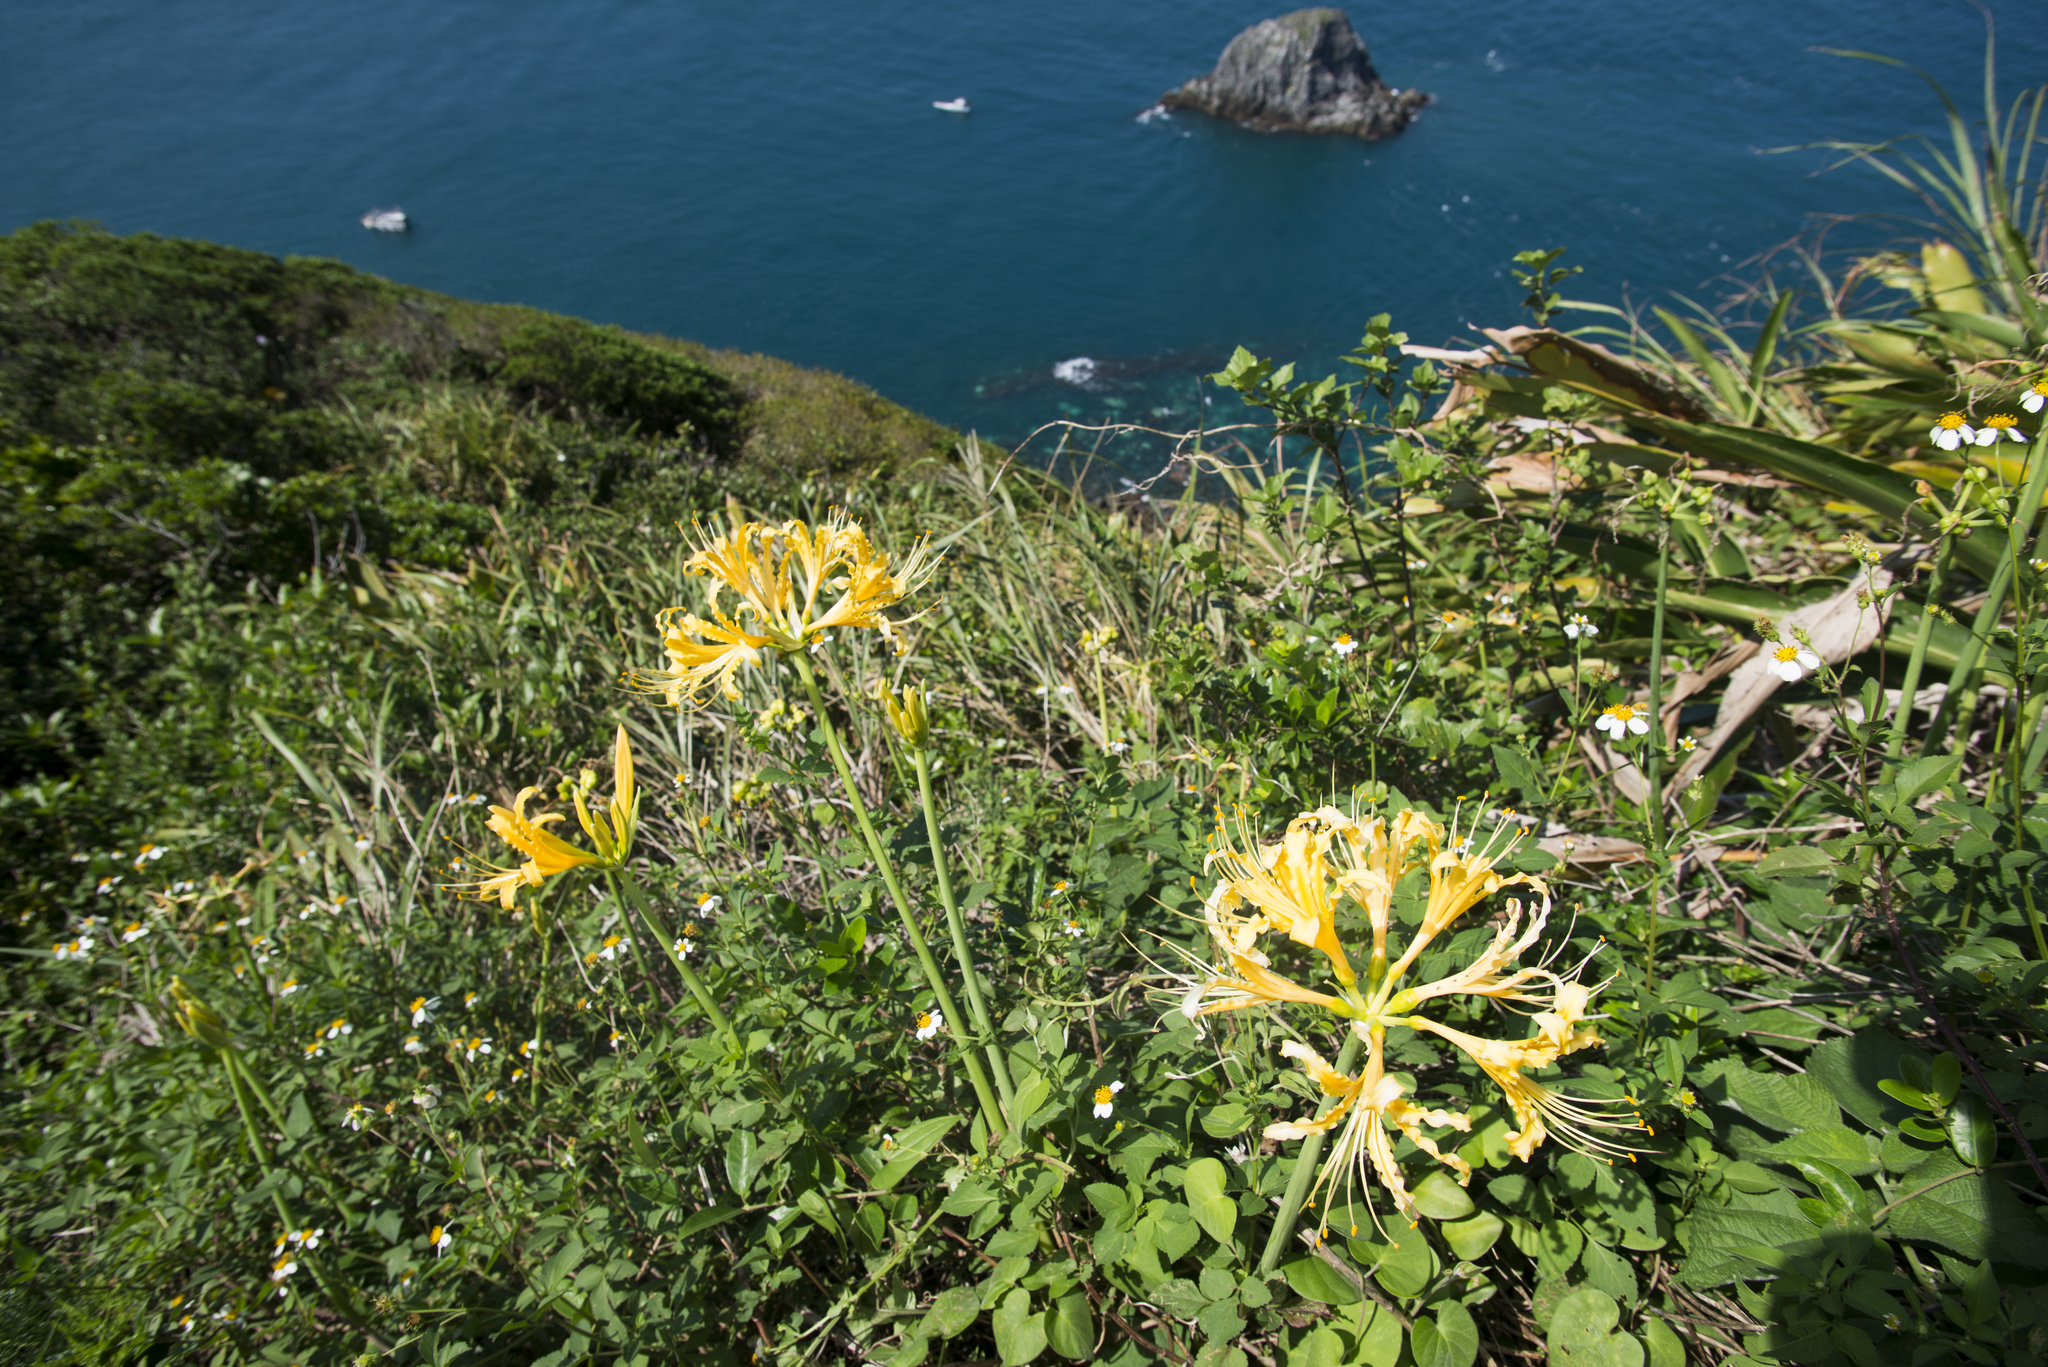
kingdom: Plantae
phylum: Tracheophyta
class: Liliopsida
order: Asparagales
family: Amaryllidaceae
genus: Lycoris
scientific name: Lycoris aurea
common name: Golden hurricane-lily
